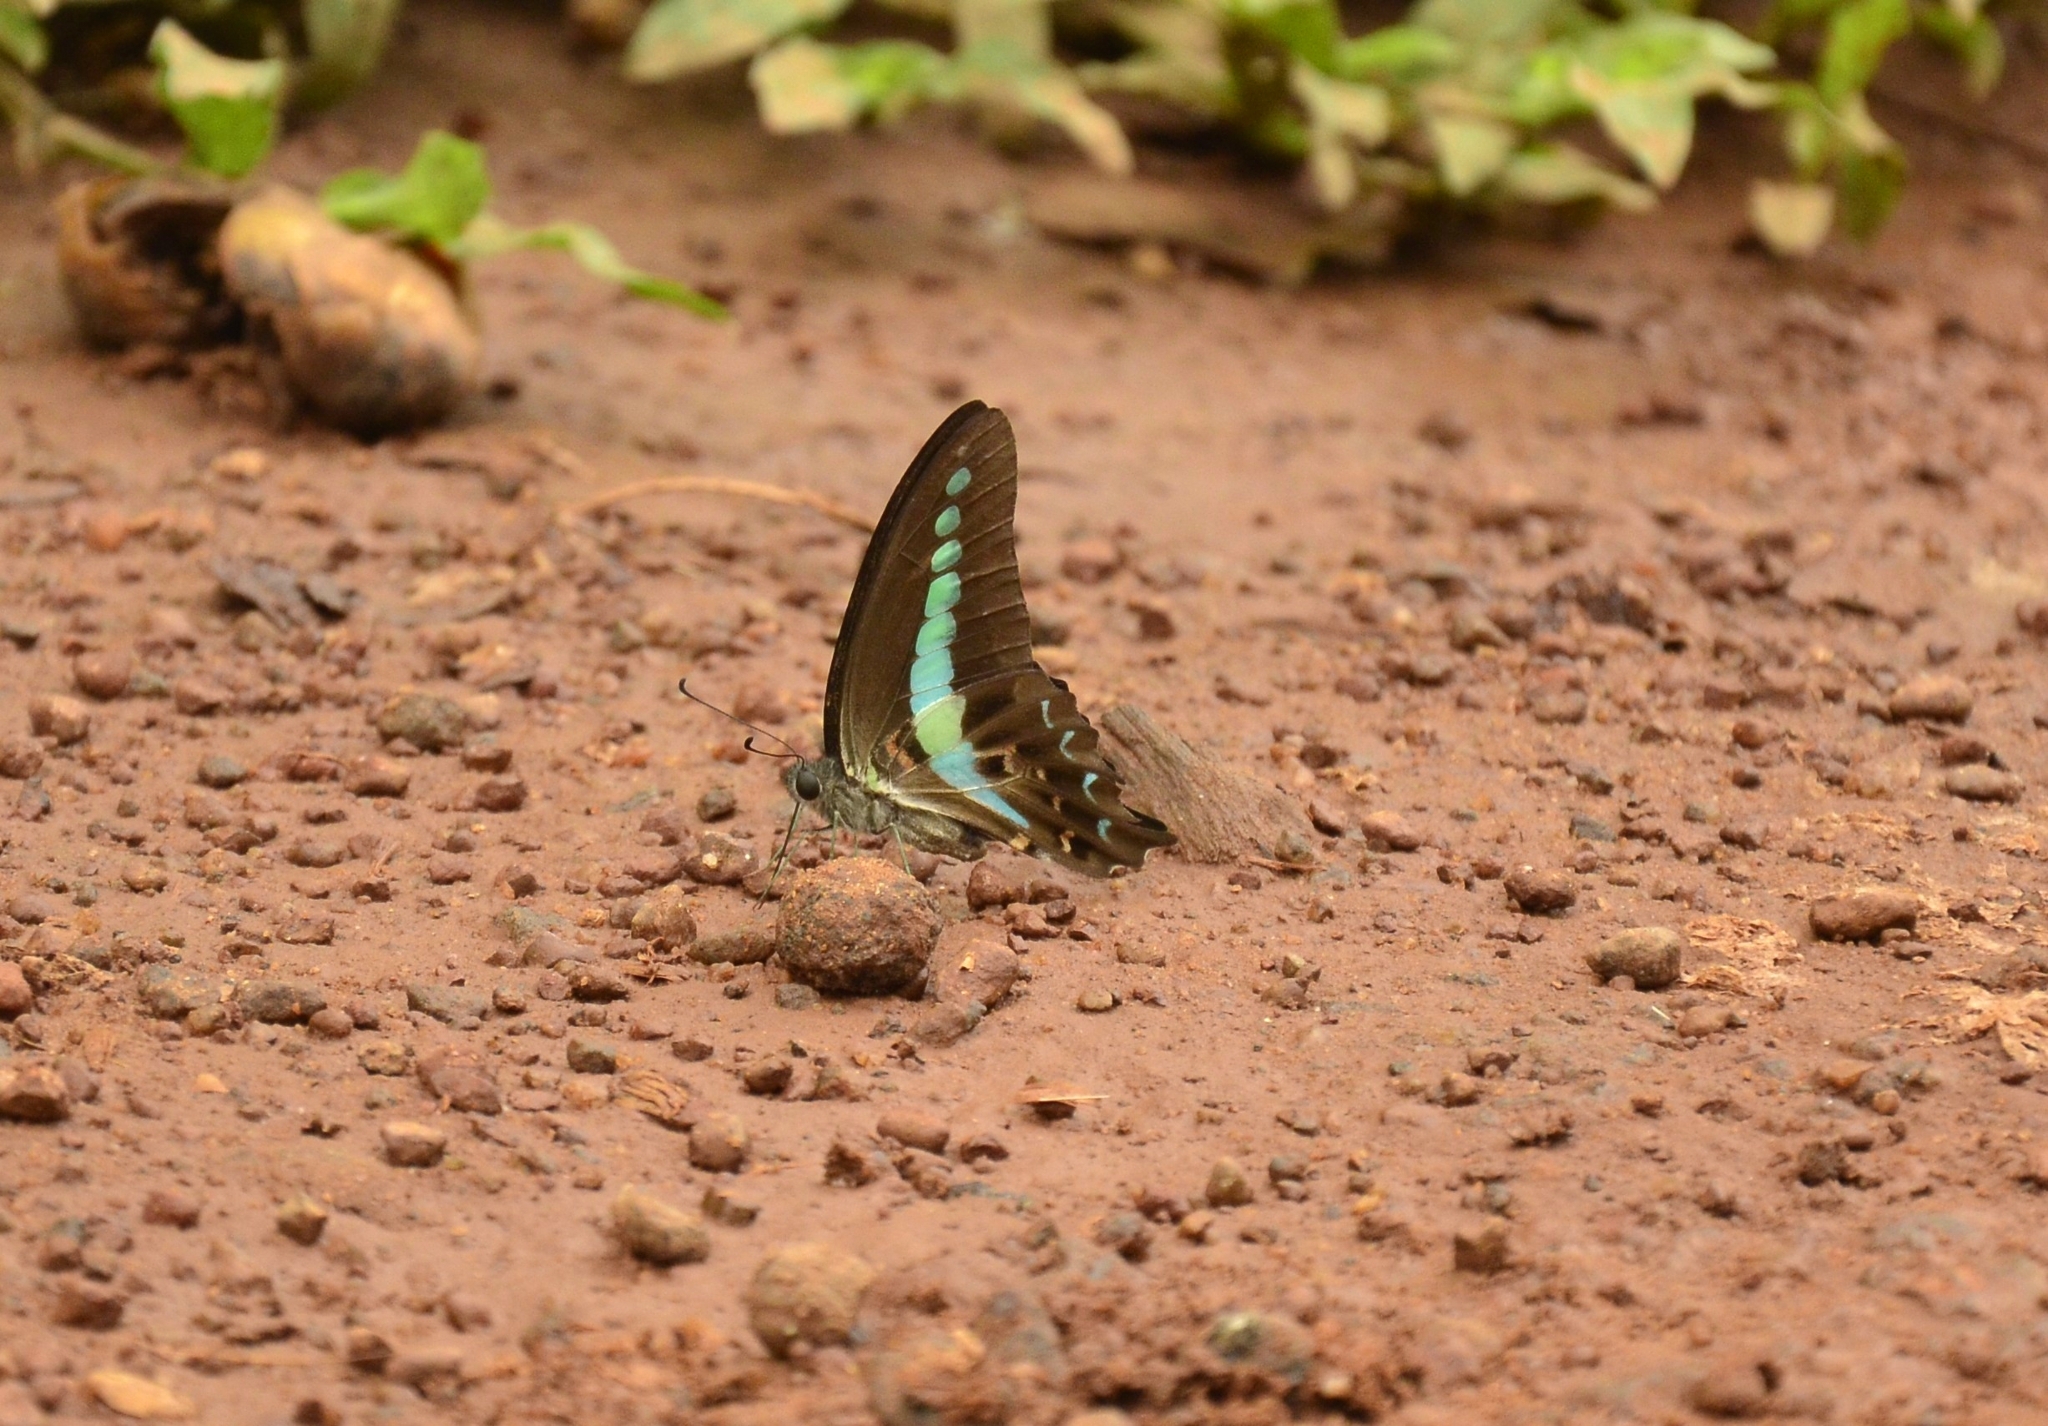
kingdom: Animalia
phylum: Arthropoda
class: Insecta
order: Lepidoptera
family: Papilionidae
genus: Graphium
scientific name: Graphium
